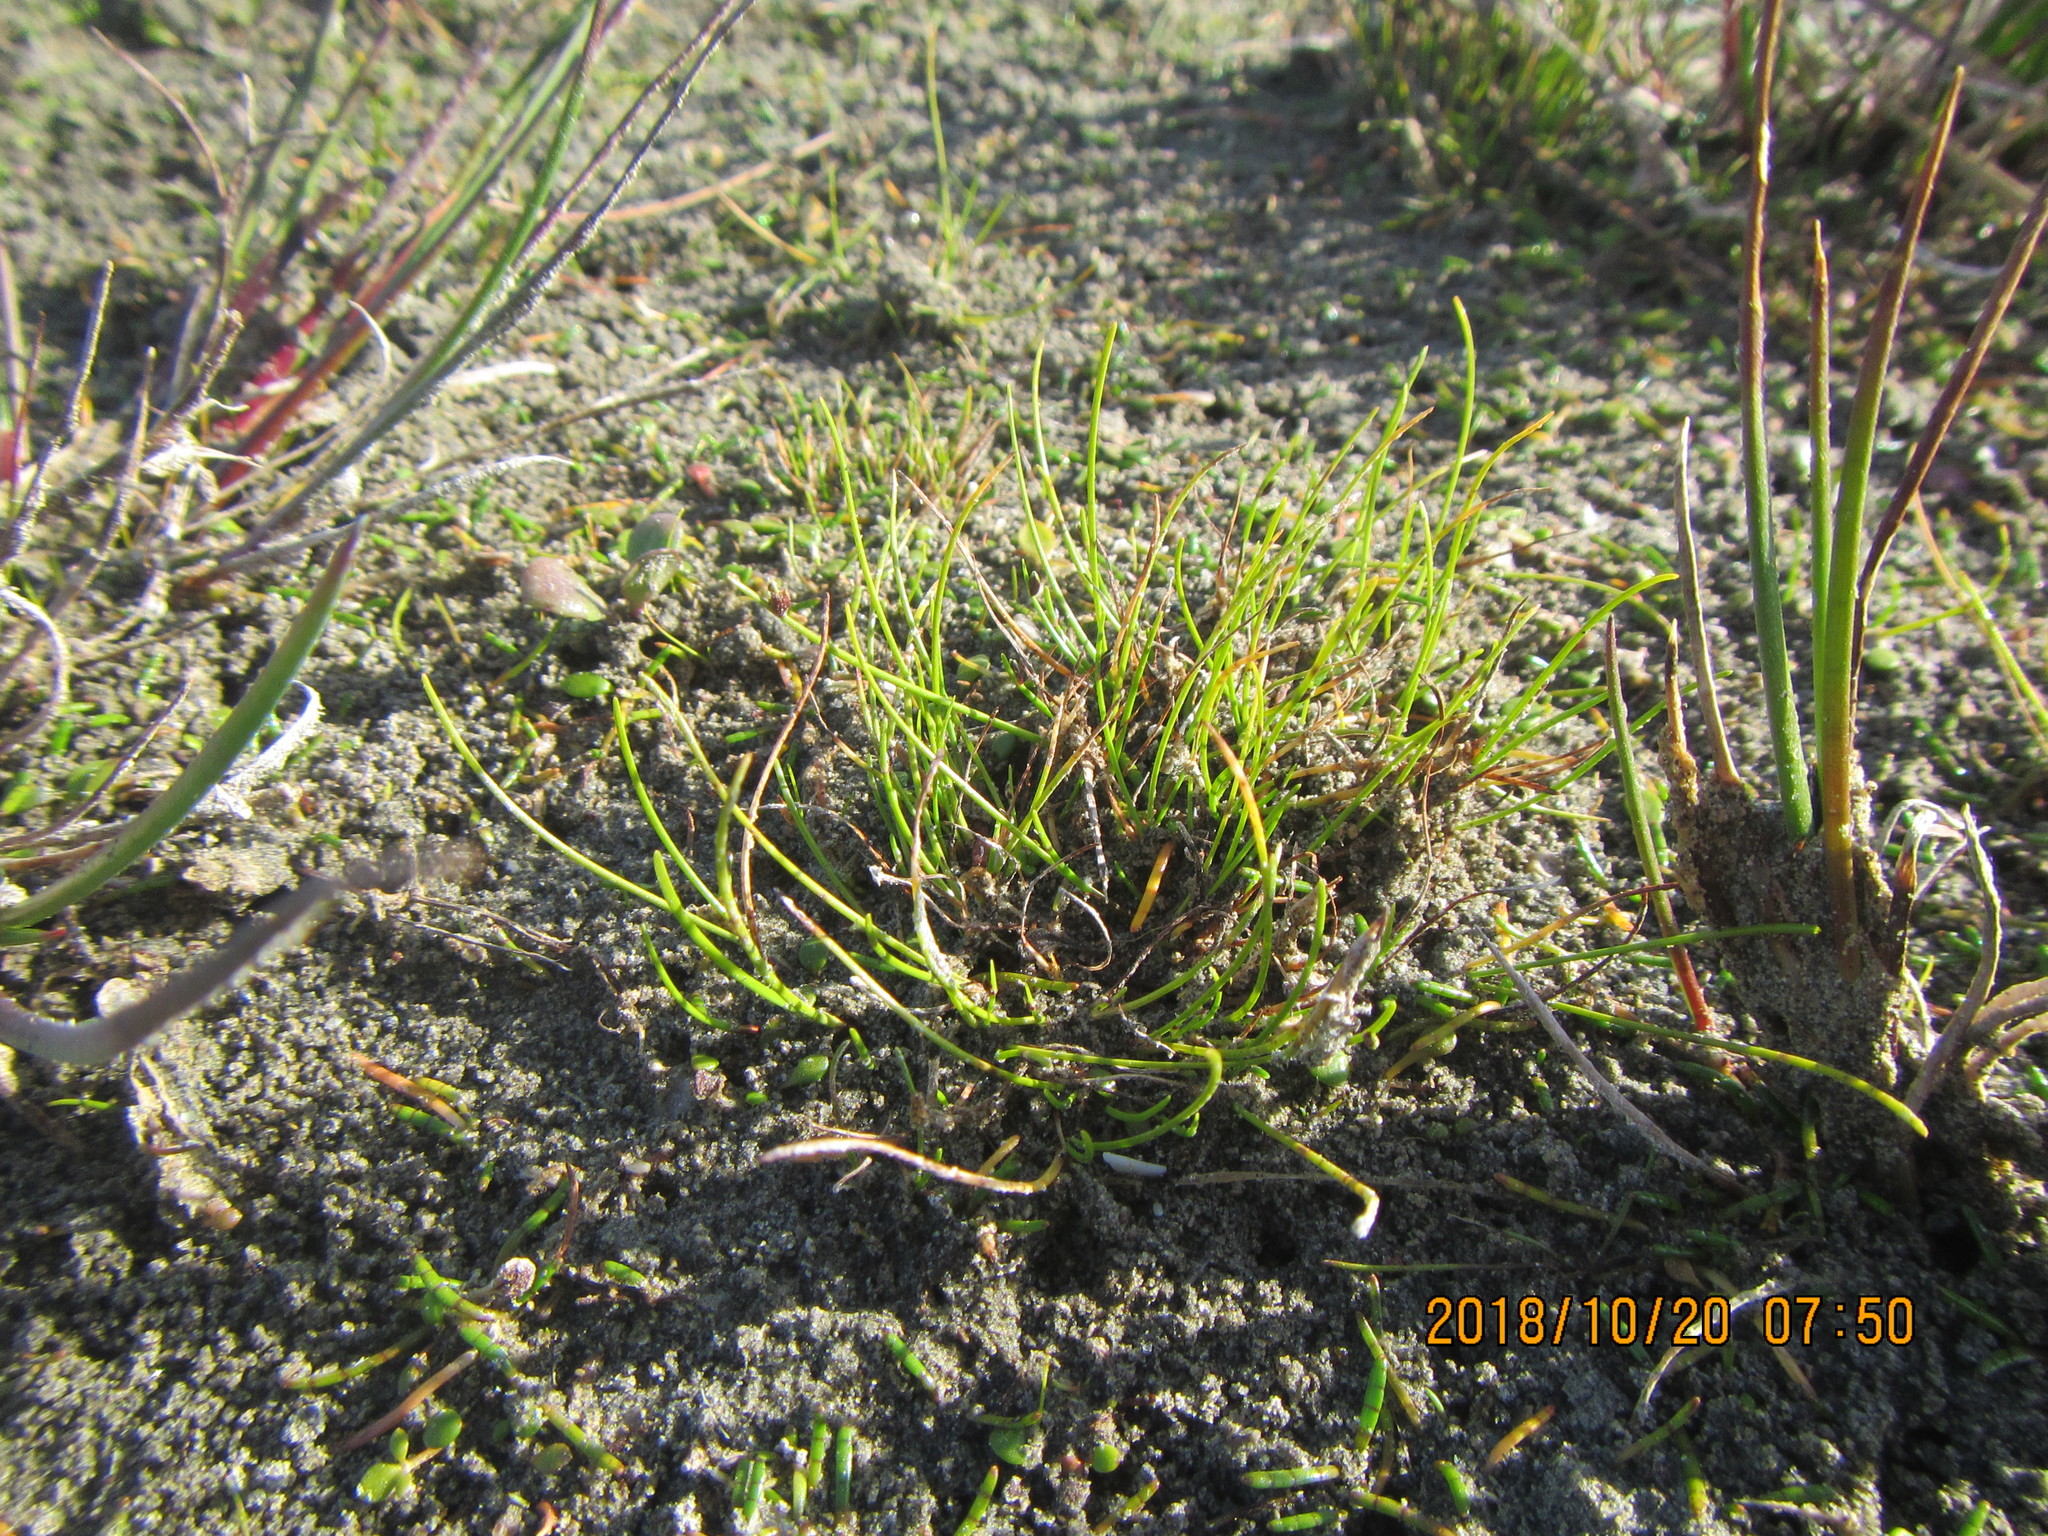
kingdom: Plantae
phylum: Tracheophyta
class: Liliopsida
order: Alismatales
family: Juncaginaceae
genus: Triglochin
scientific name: Triglochin striata
